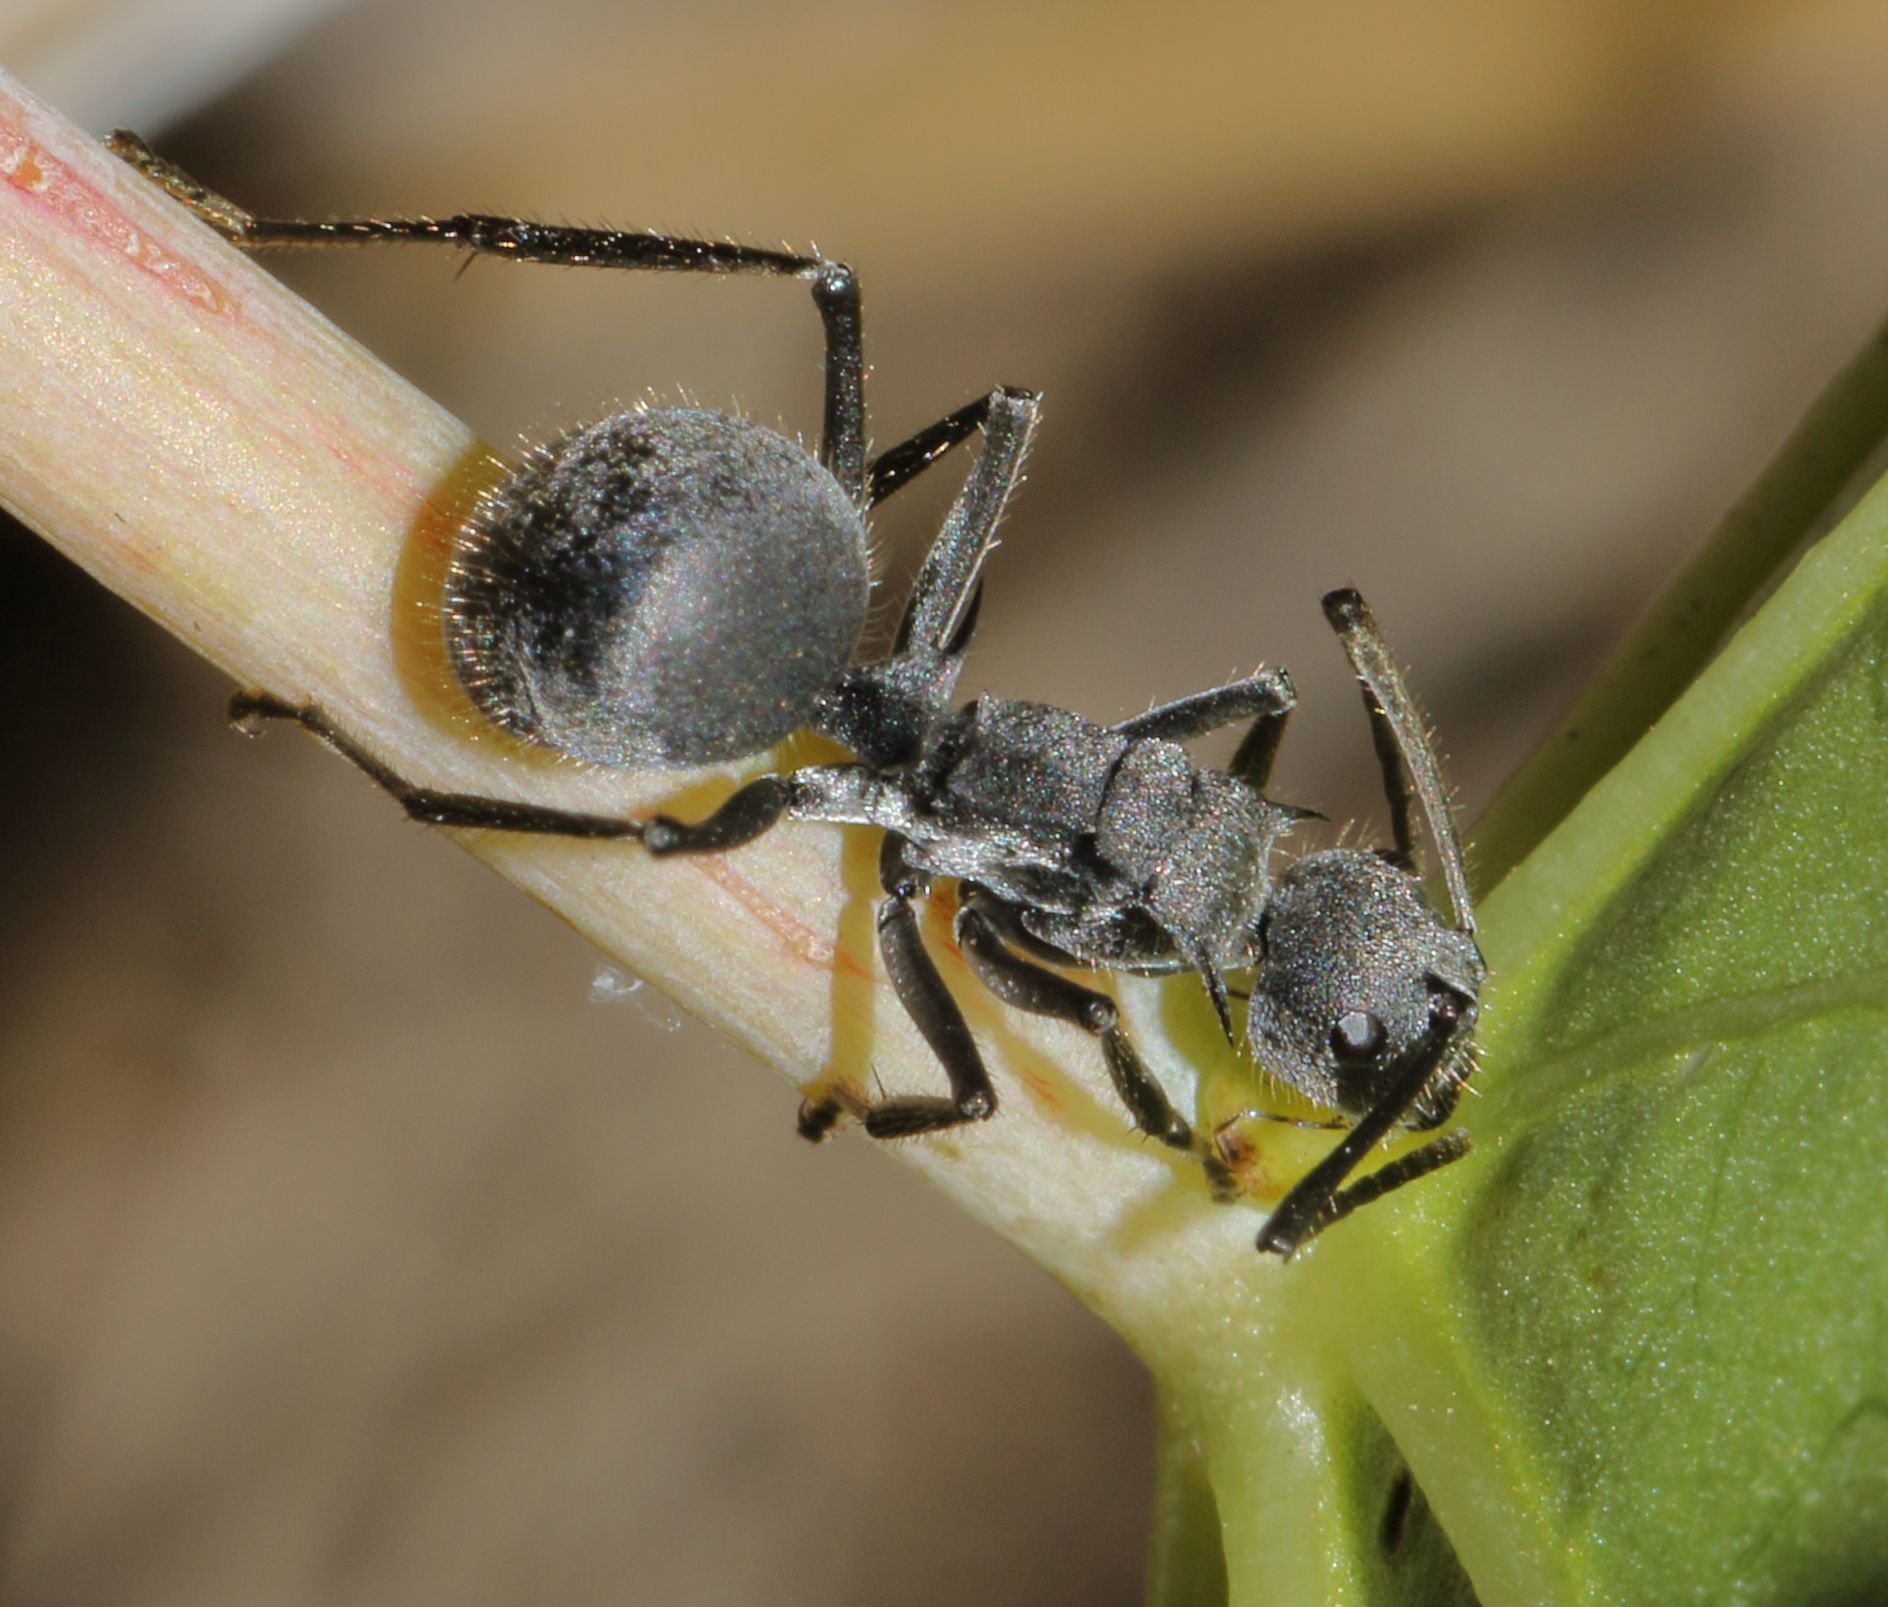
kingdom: Animalia
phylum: Arthropoda
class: Insecta
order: Hymenoptera
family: Formicidae
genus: Polyrhachis
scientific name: Polyrhachis schistacea
